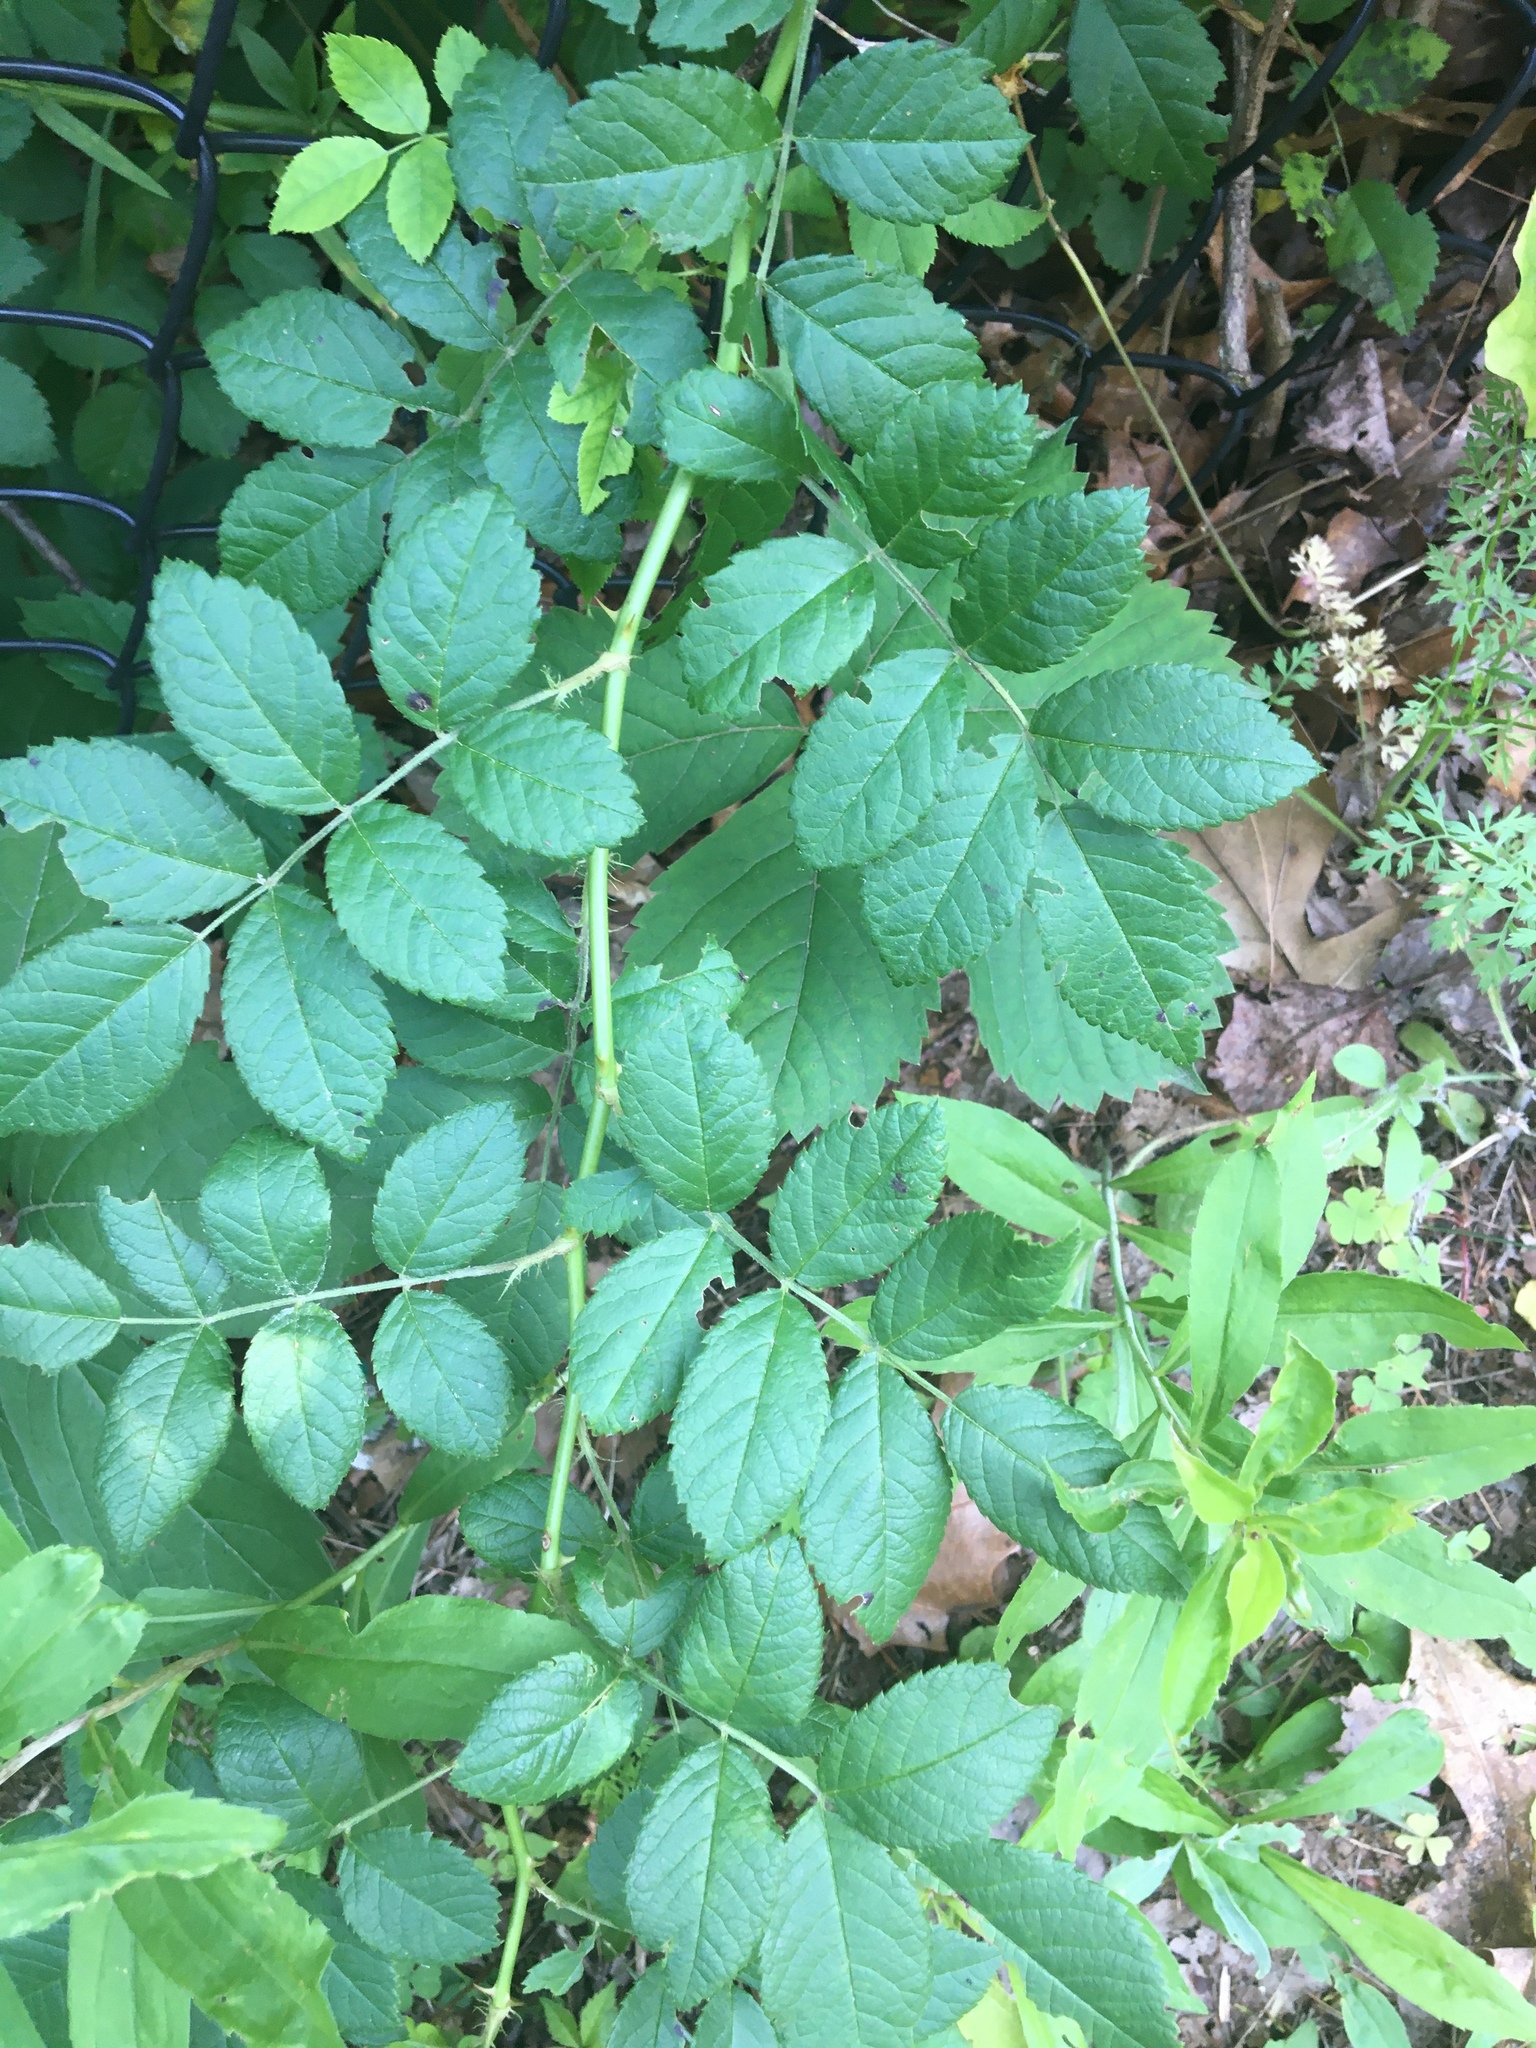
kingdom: Plantae
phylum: Tracheophyta
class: Magnoliopsida
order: Rosales
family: Rosaceae
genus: Rosa
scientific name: Rosa multiflora
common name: Multiflora rose
